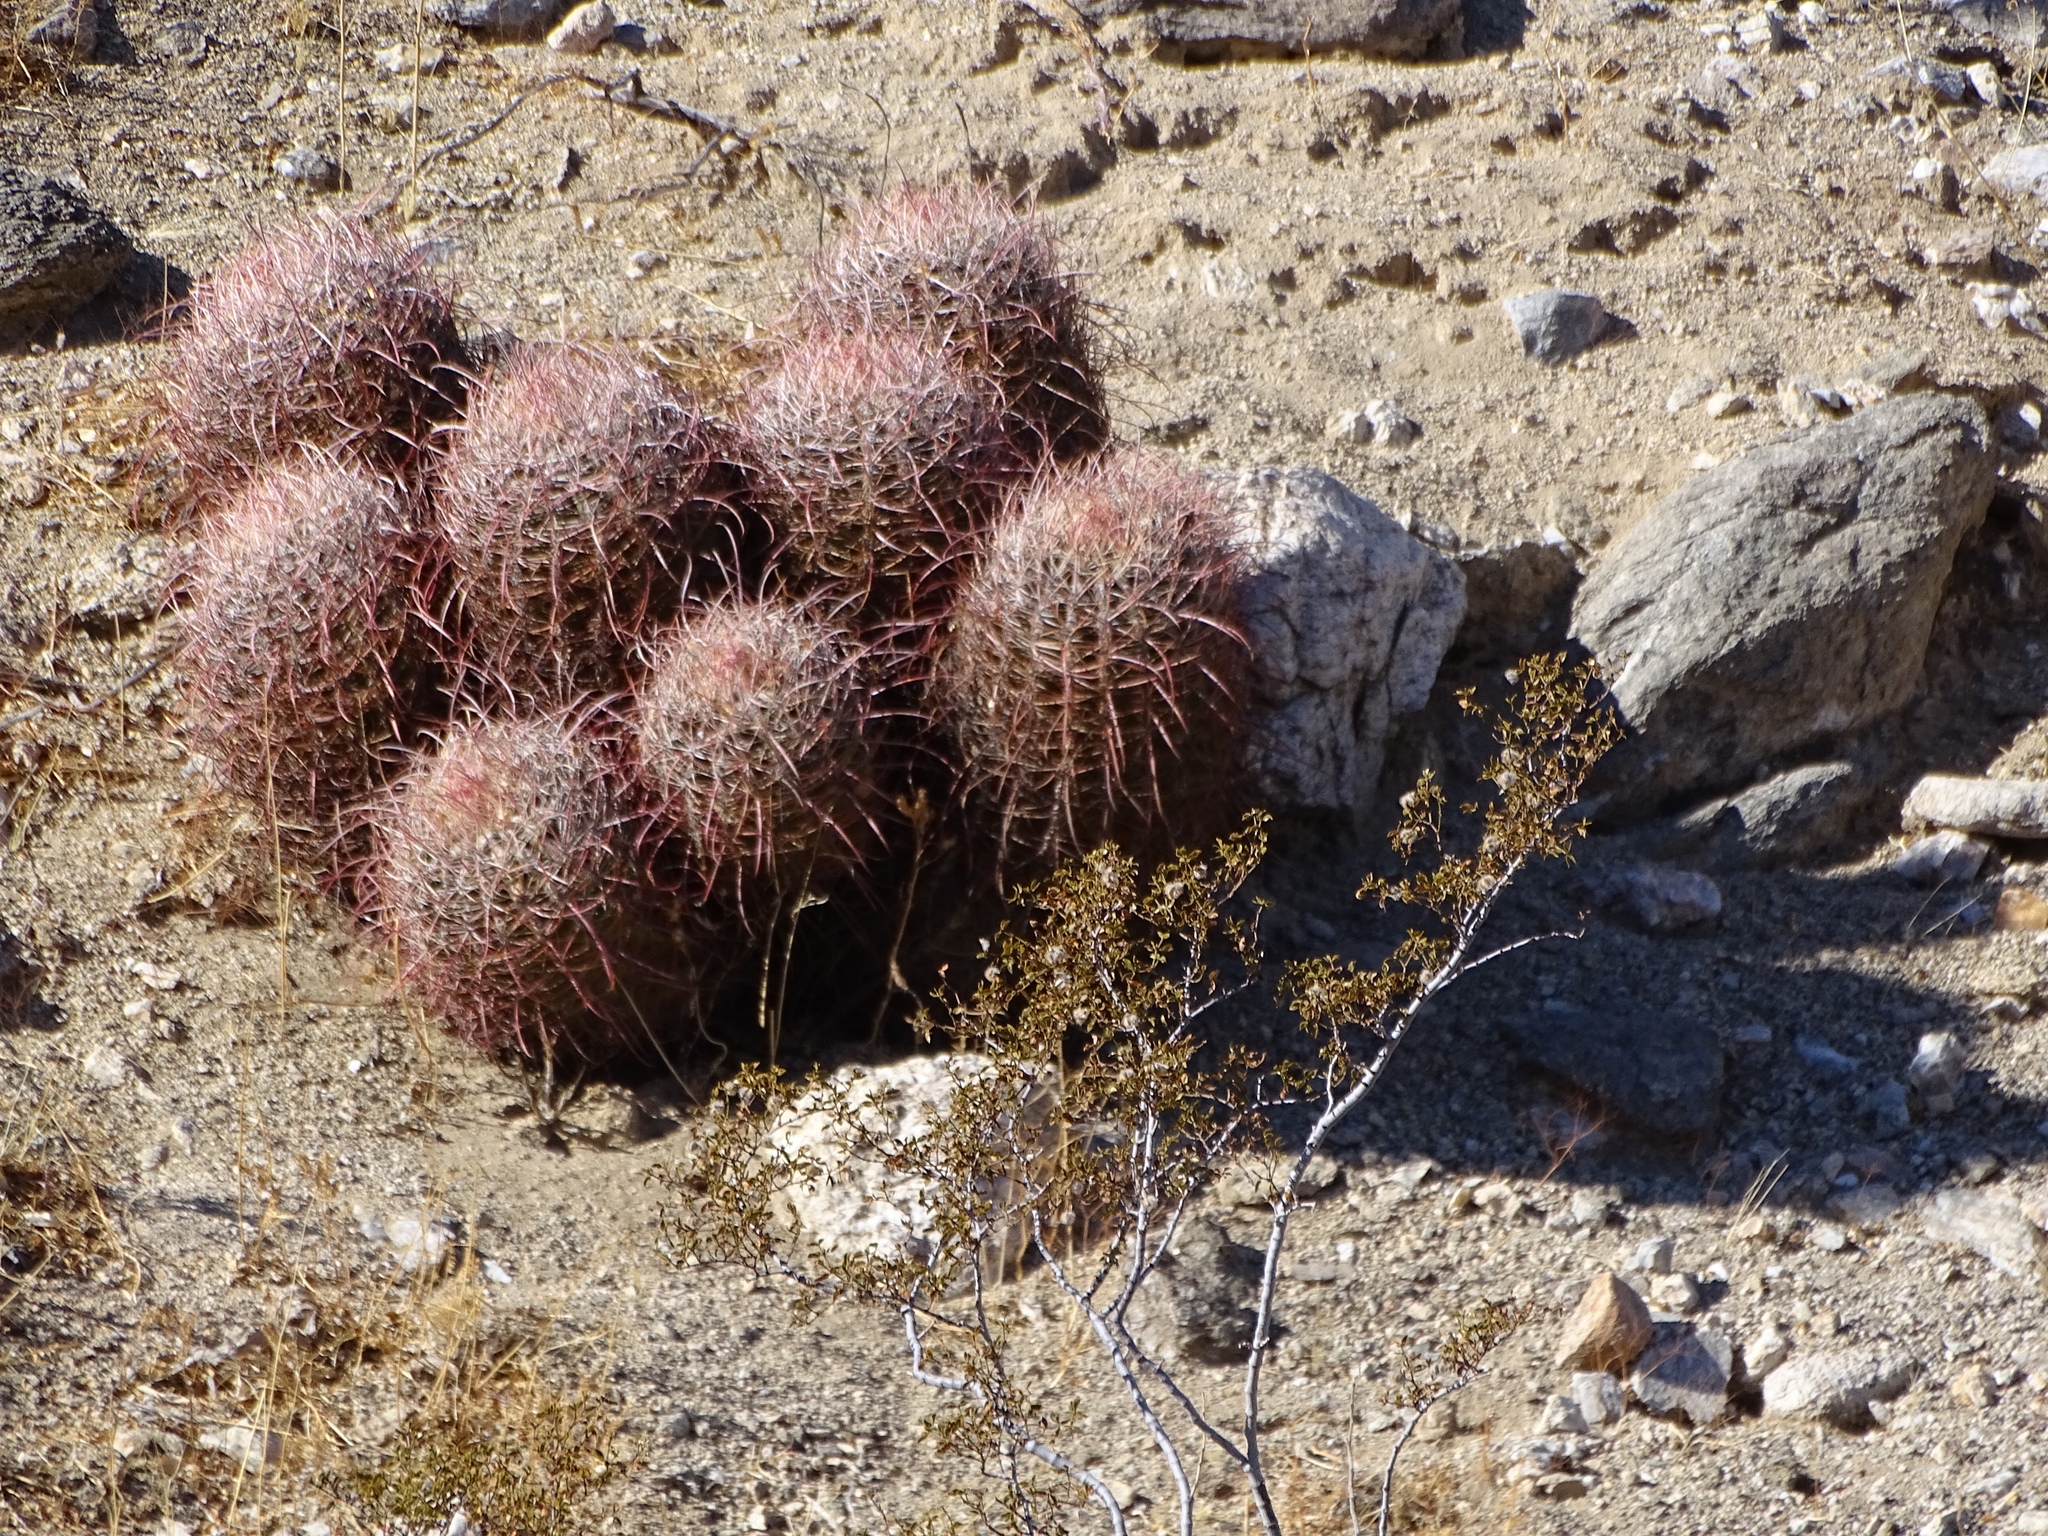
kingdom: Plantae
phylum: Tracheophyta
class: Magnoliopsida
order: Caryophyllales
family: Cactaceae
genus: Ferocactus
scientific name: Ferocactus cylindraceus
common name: California barrel cactus
